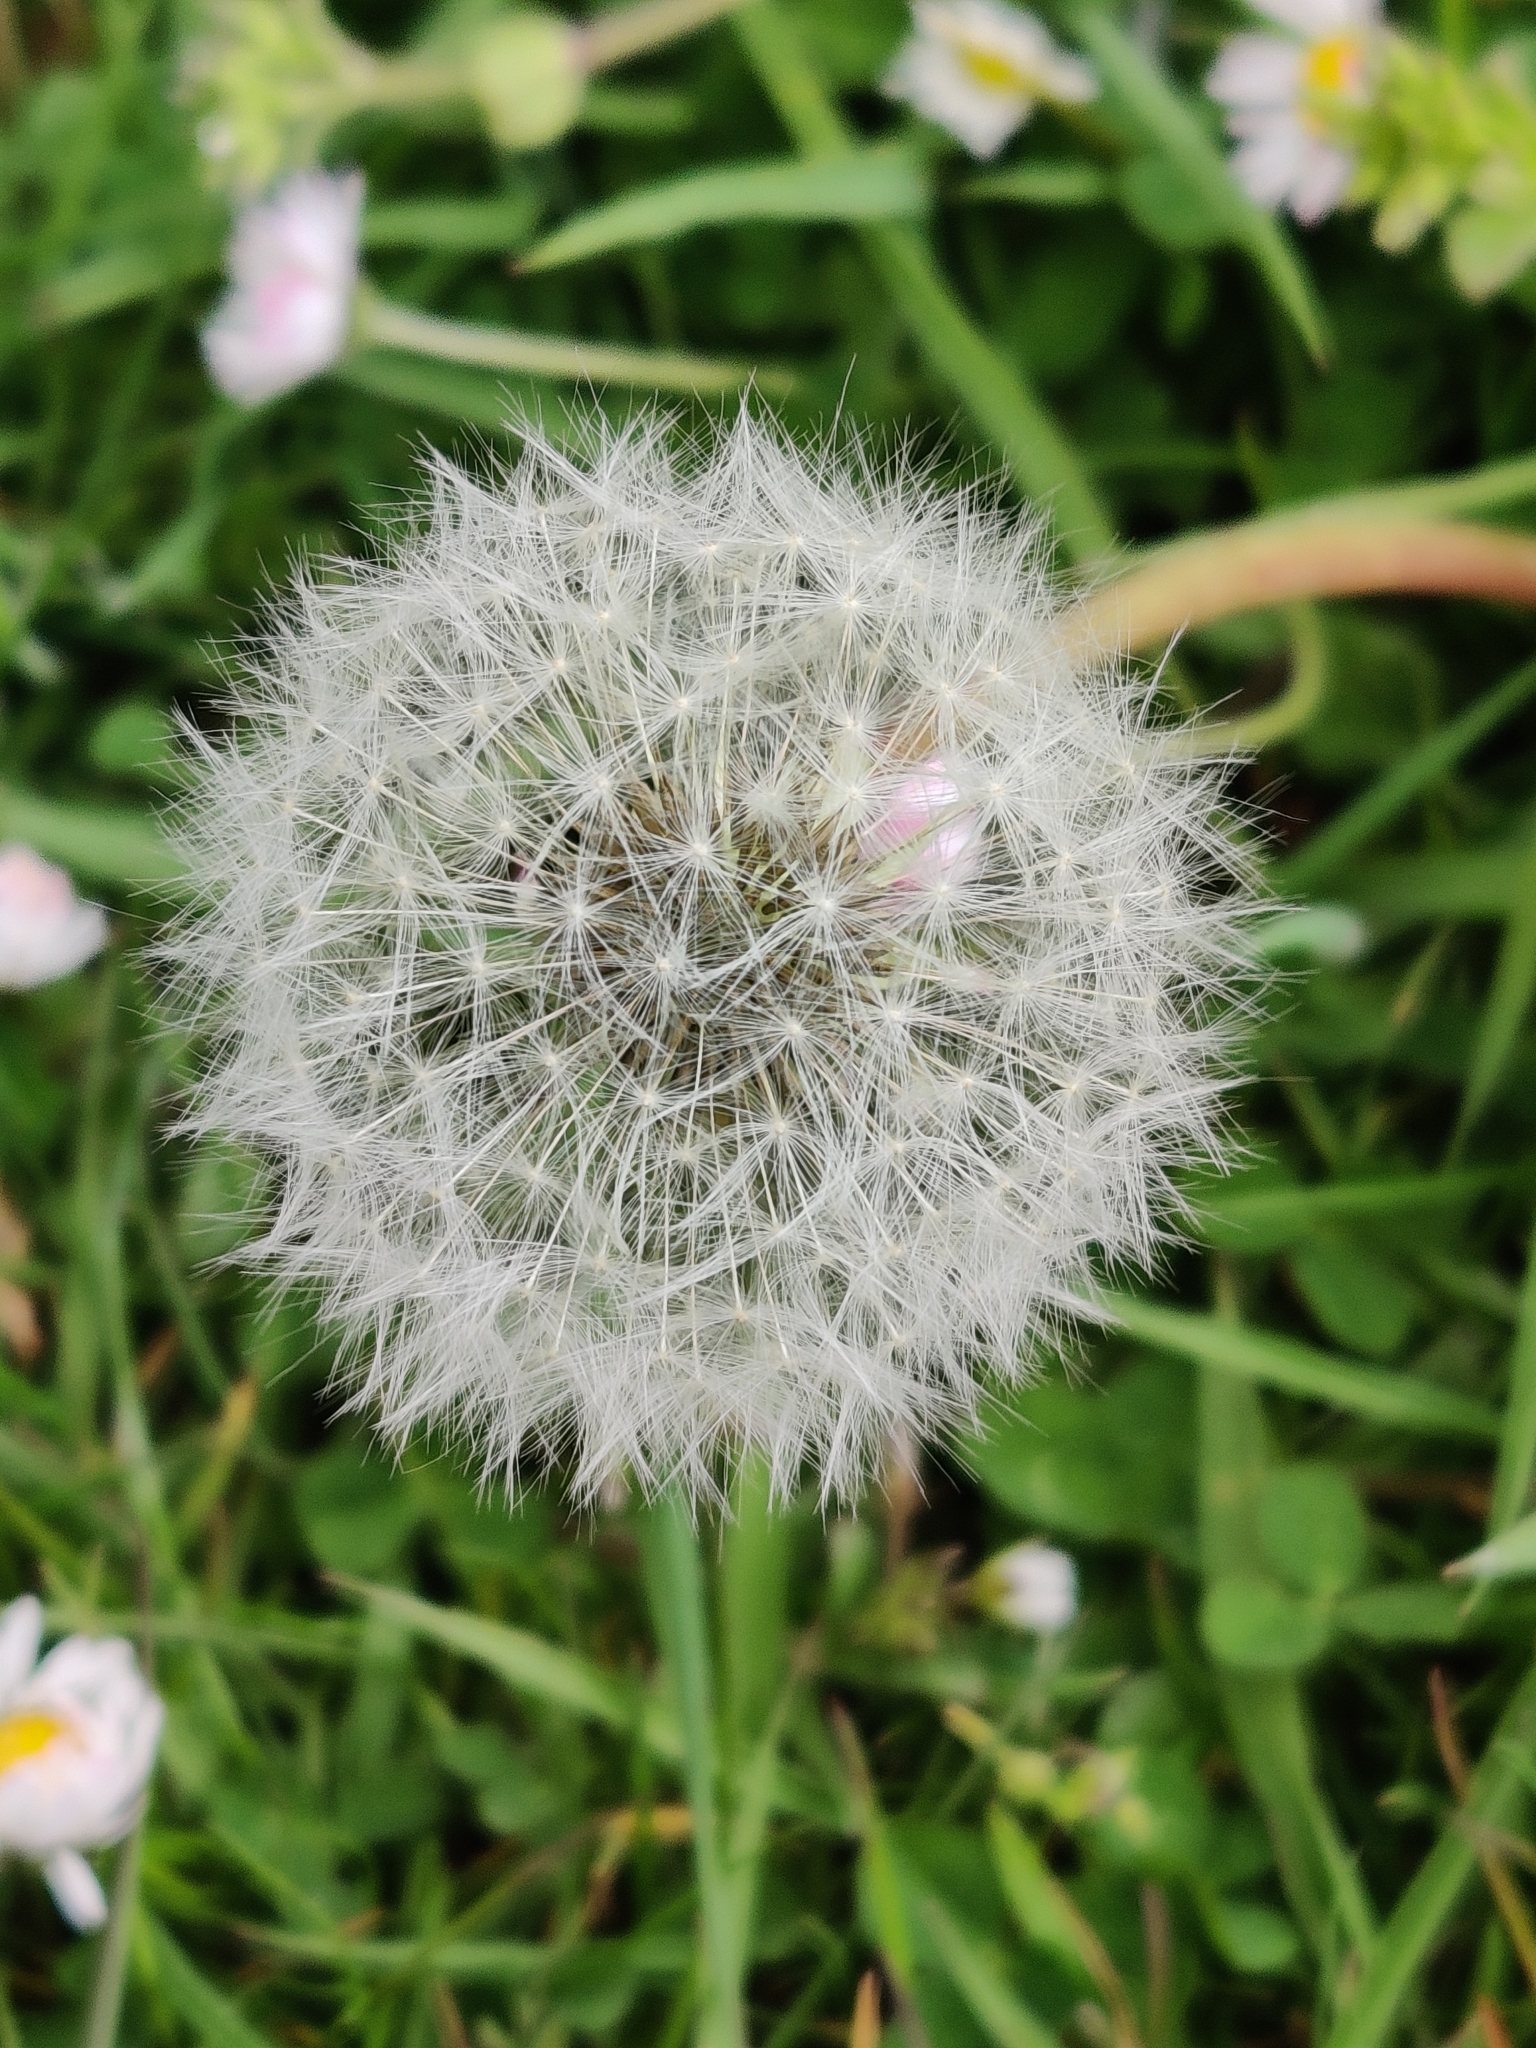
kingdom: Plantae
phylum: Tracheophyta
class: Magnoliopsida
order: Asterales
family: Asteraceae
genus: Taraxacum
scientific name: Taraxacum officinale
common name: Common dandelion
